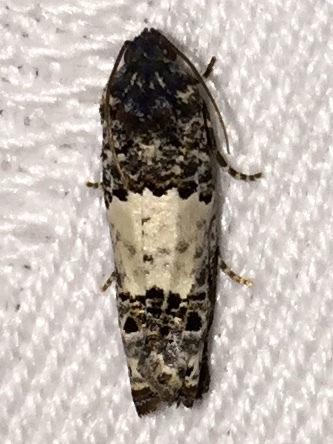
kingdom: Animalia
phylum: Arthropoda
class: Insecta
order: Lepidoptera
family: Tortricidae
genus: Epiblema
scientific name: Epiblema carolinana
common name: Gray-blotched epiblema moth
